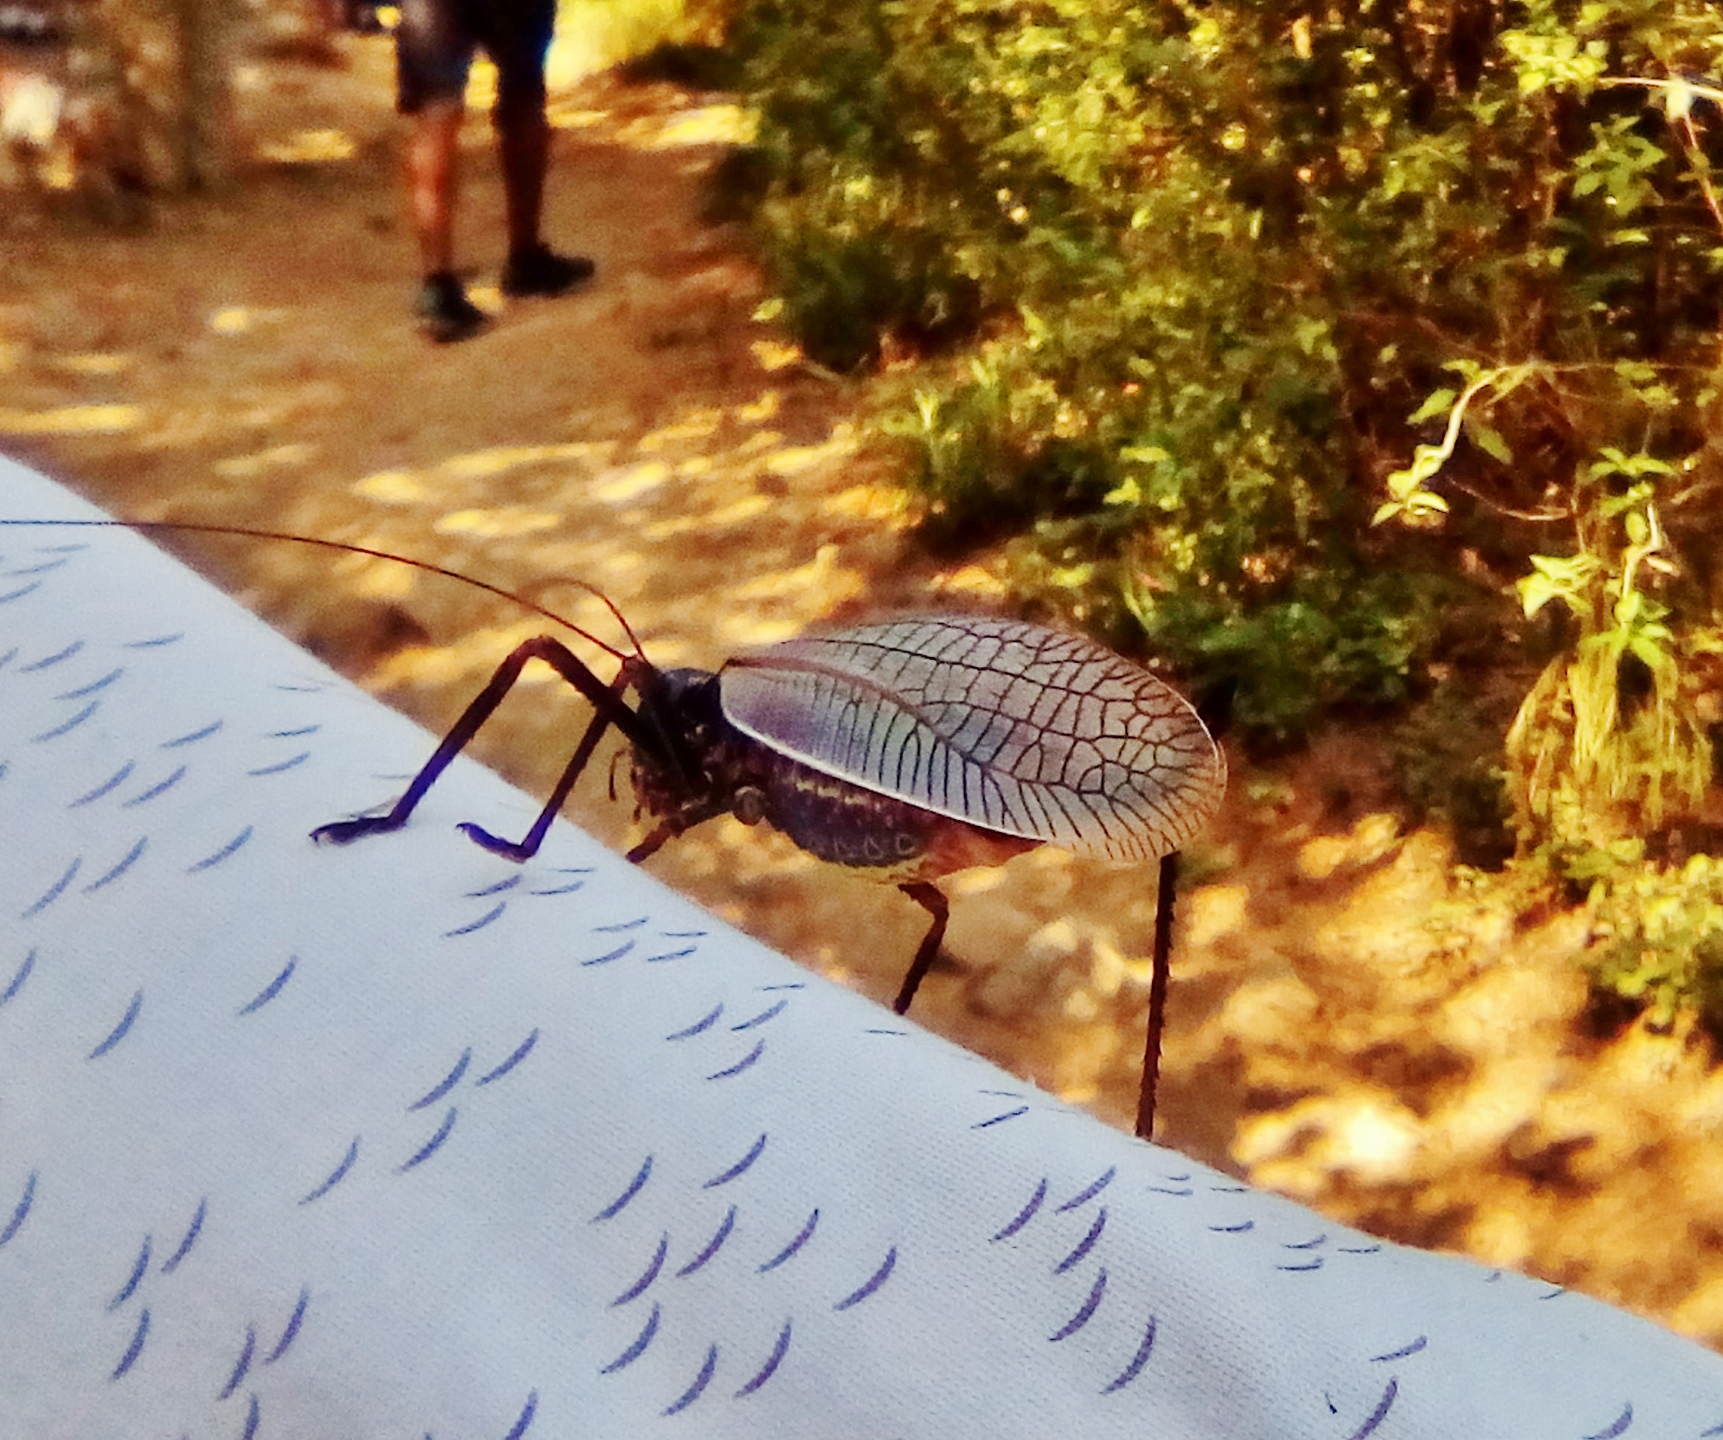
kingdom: Animalia
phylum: Arthropoda
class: Insecta
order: Orthoptera
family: Tettigoniidae
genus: Pterophylla
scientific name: Pterophylla beltrani
